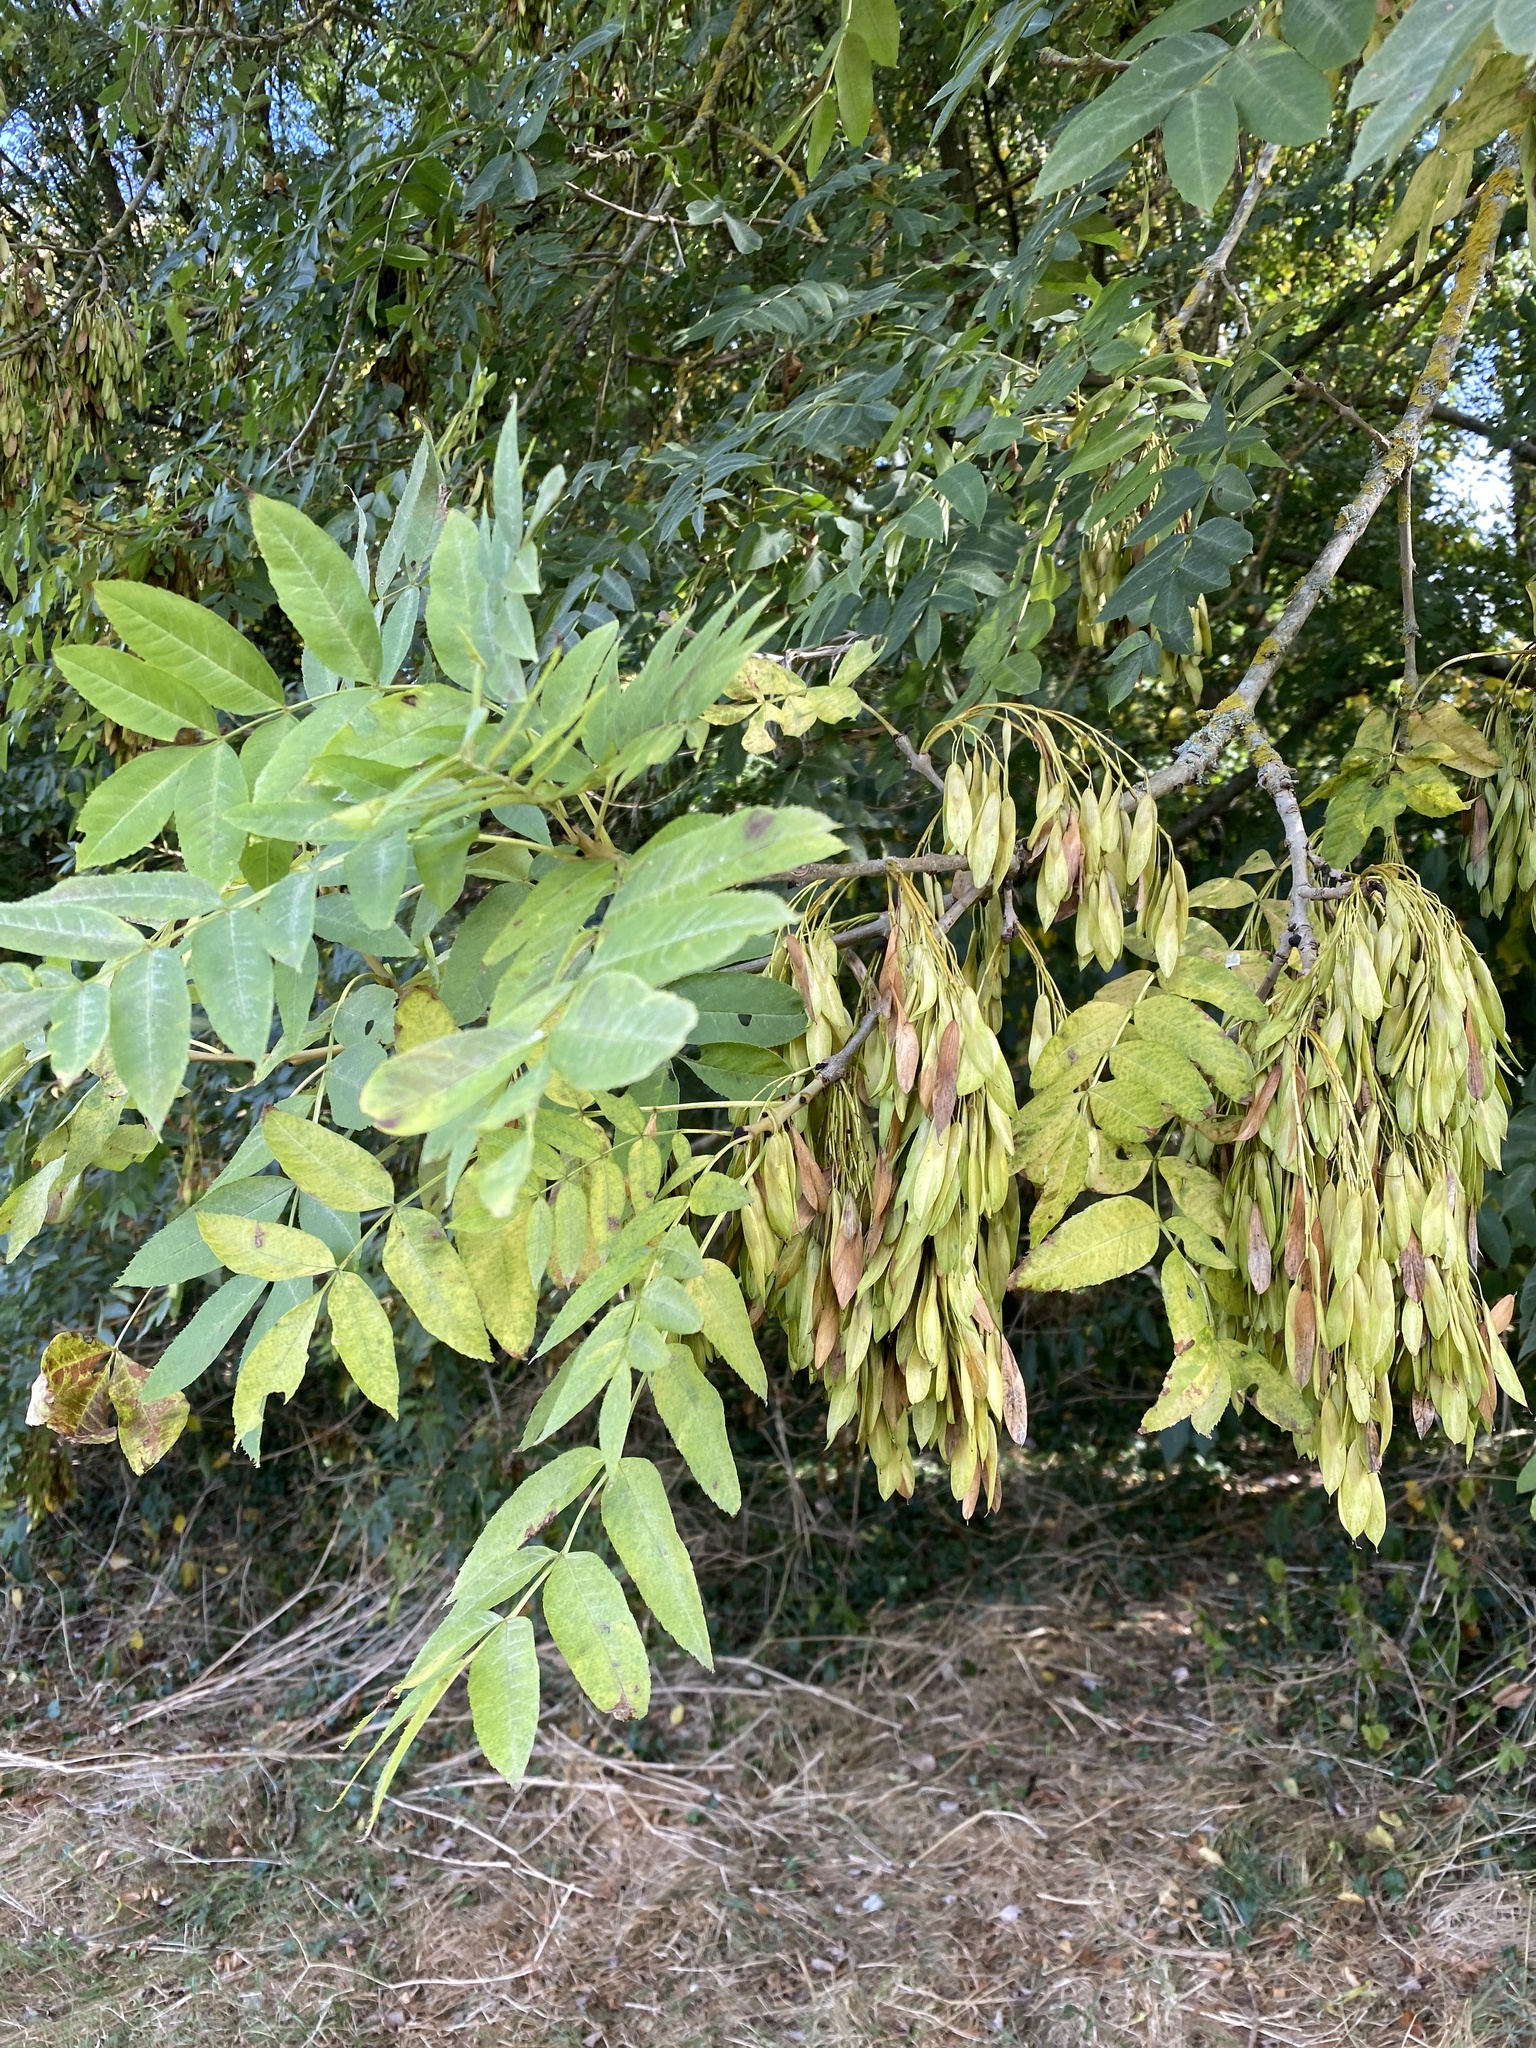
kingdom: Plantae
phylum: Tracheophyta
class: Magnoliopsida
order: Lamiales
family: Oleaceae
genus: Fraxinus
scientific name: Fraxinus excelsior
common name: European ash
